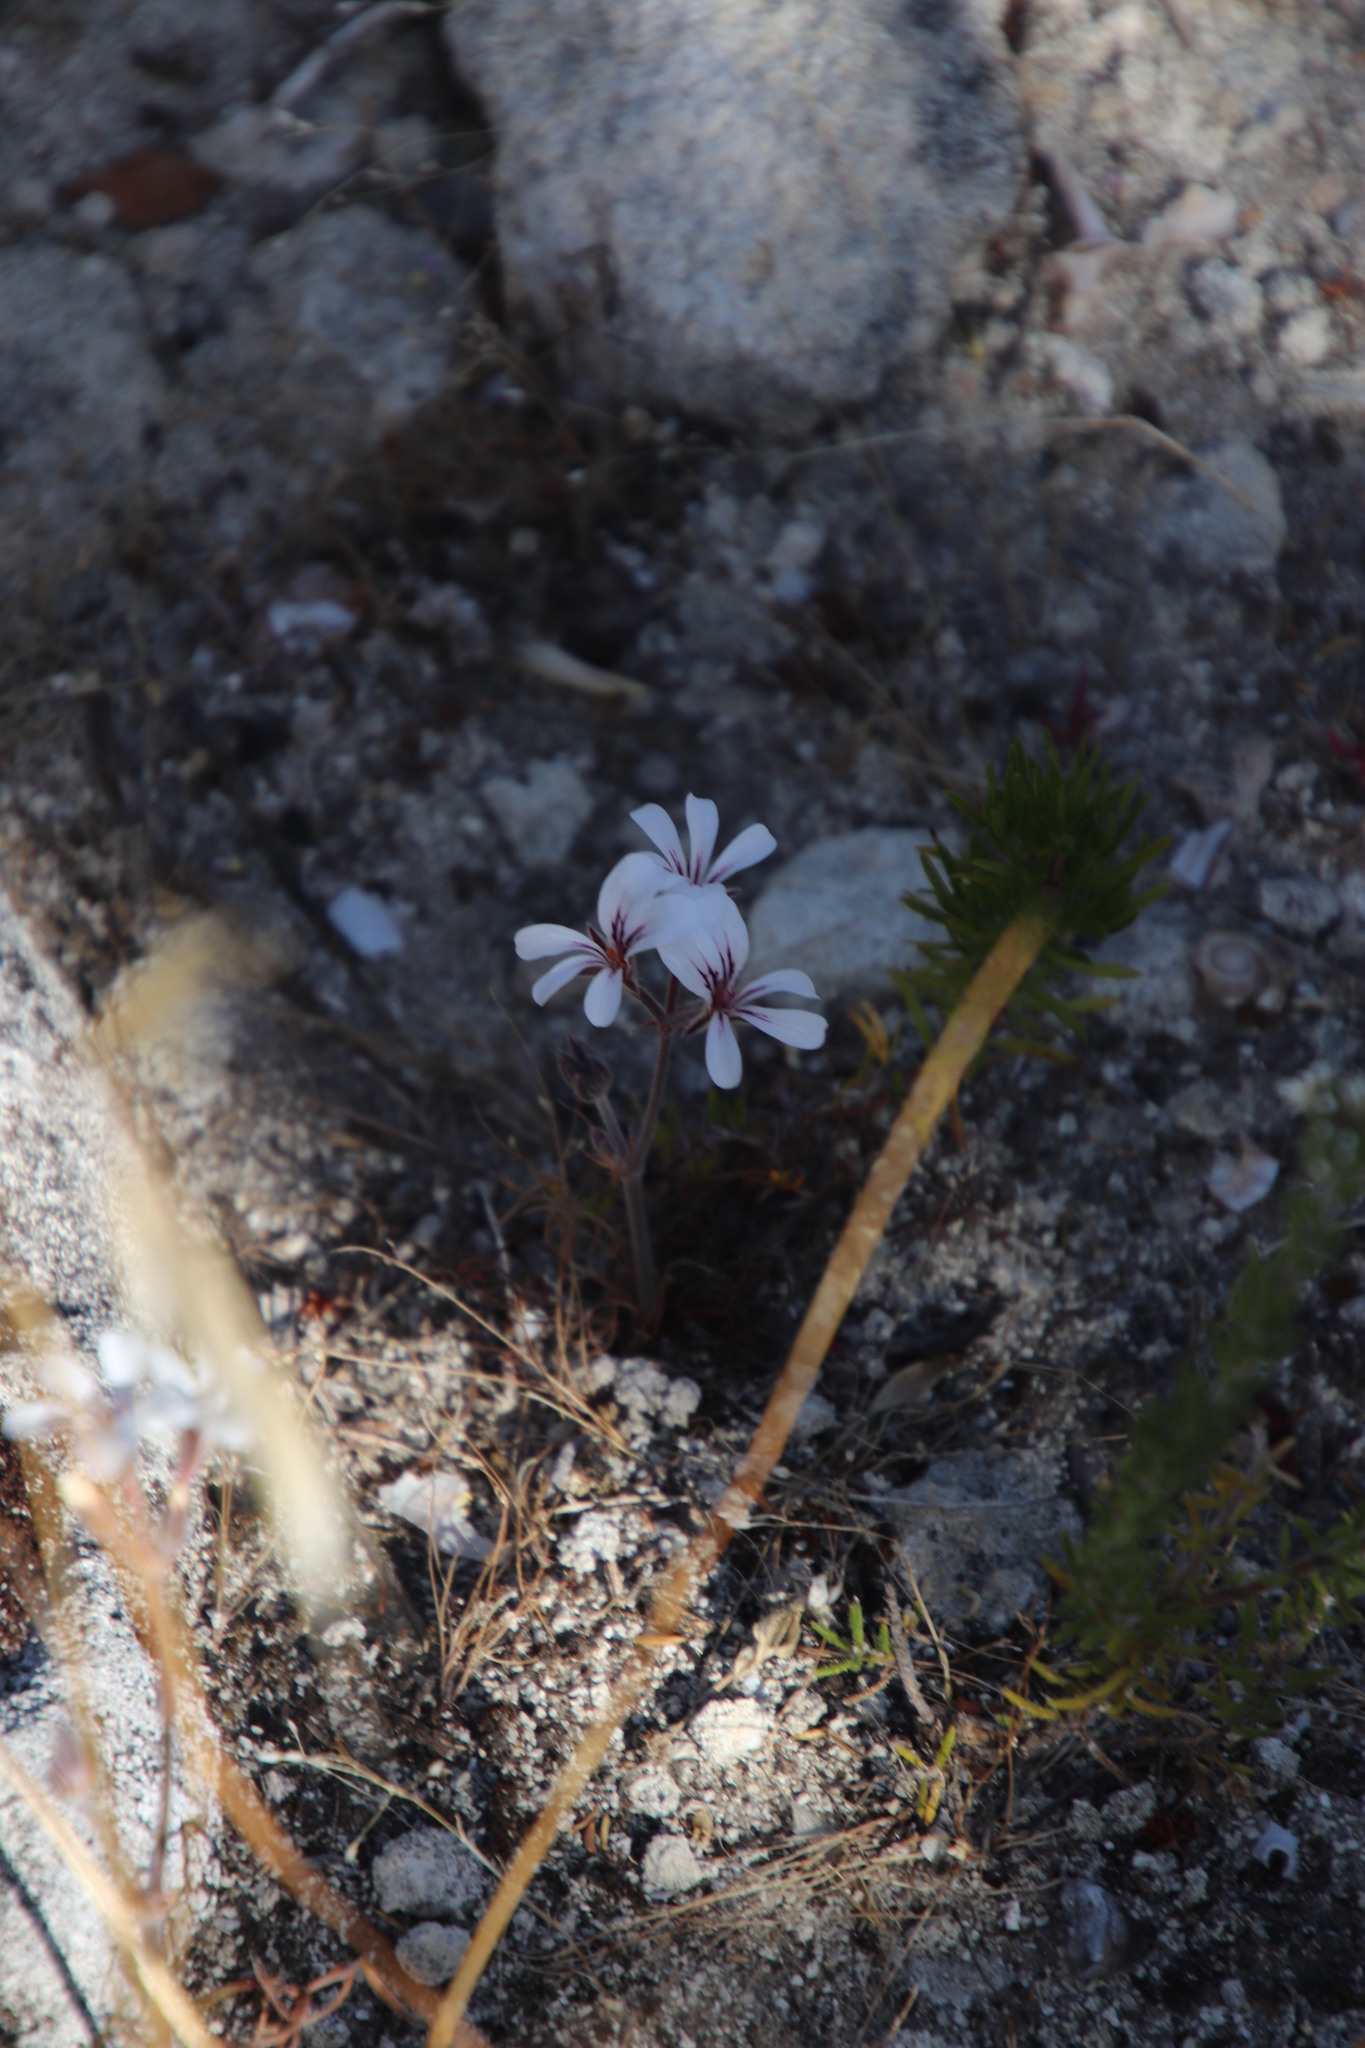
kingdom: Plantae
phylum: Tracheophyta
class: Magnoliopsida
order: Geraniales
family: Geraniaceae
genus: Pelargonium
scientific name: Pelargonium proliferum
